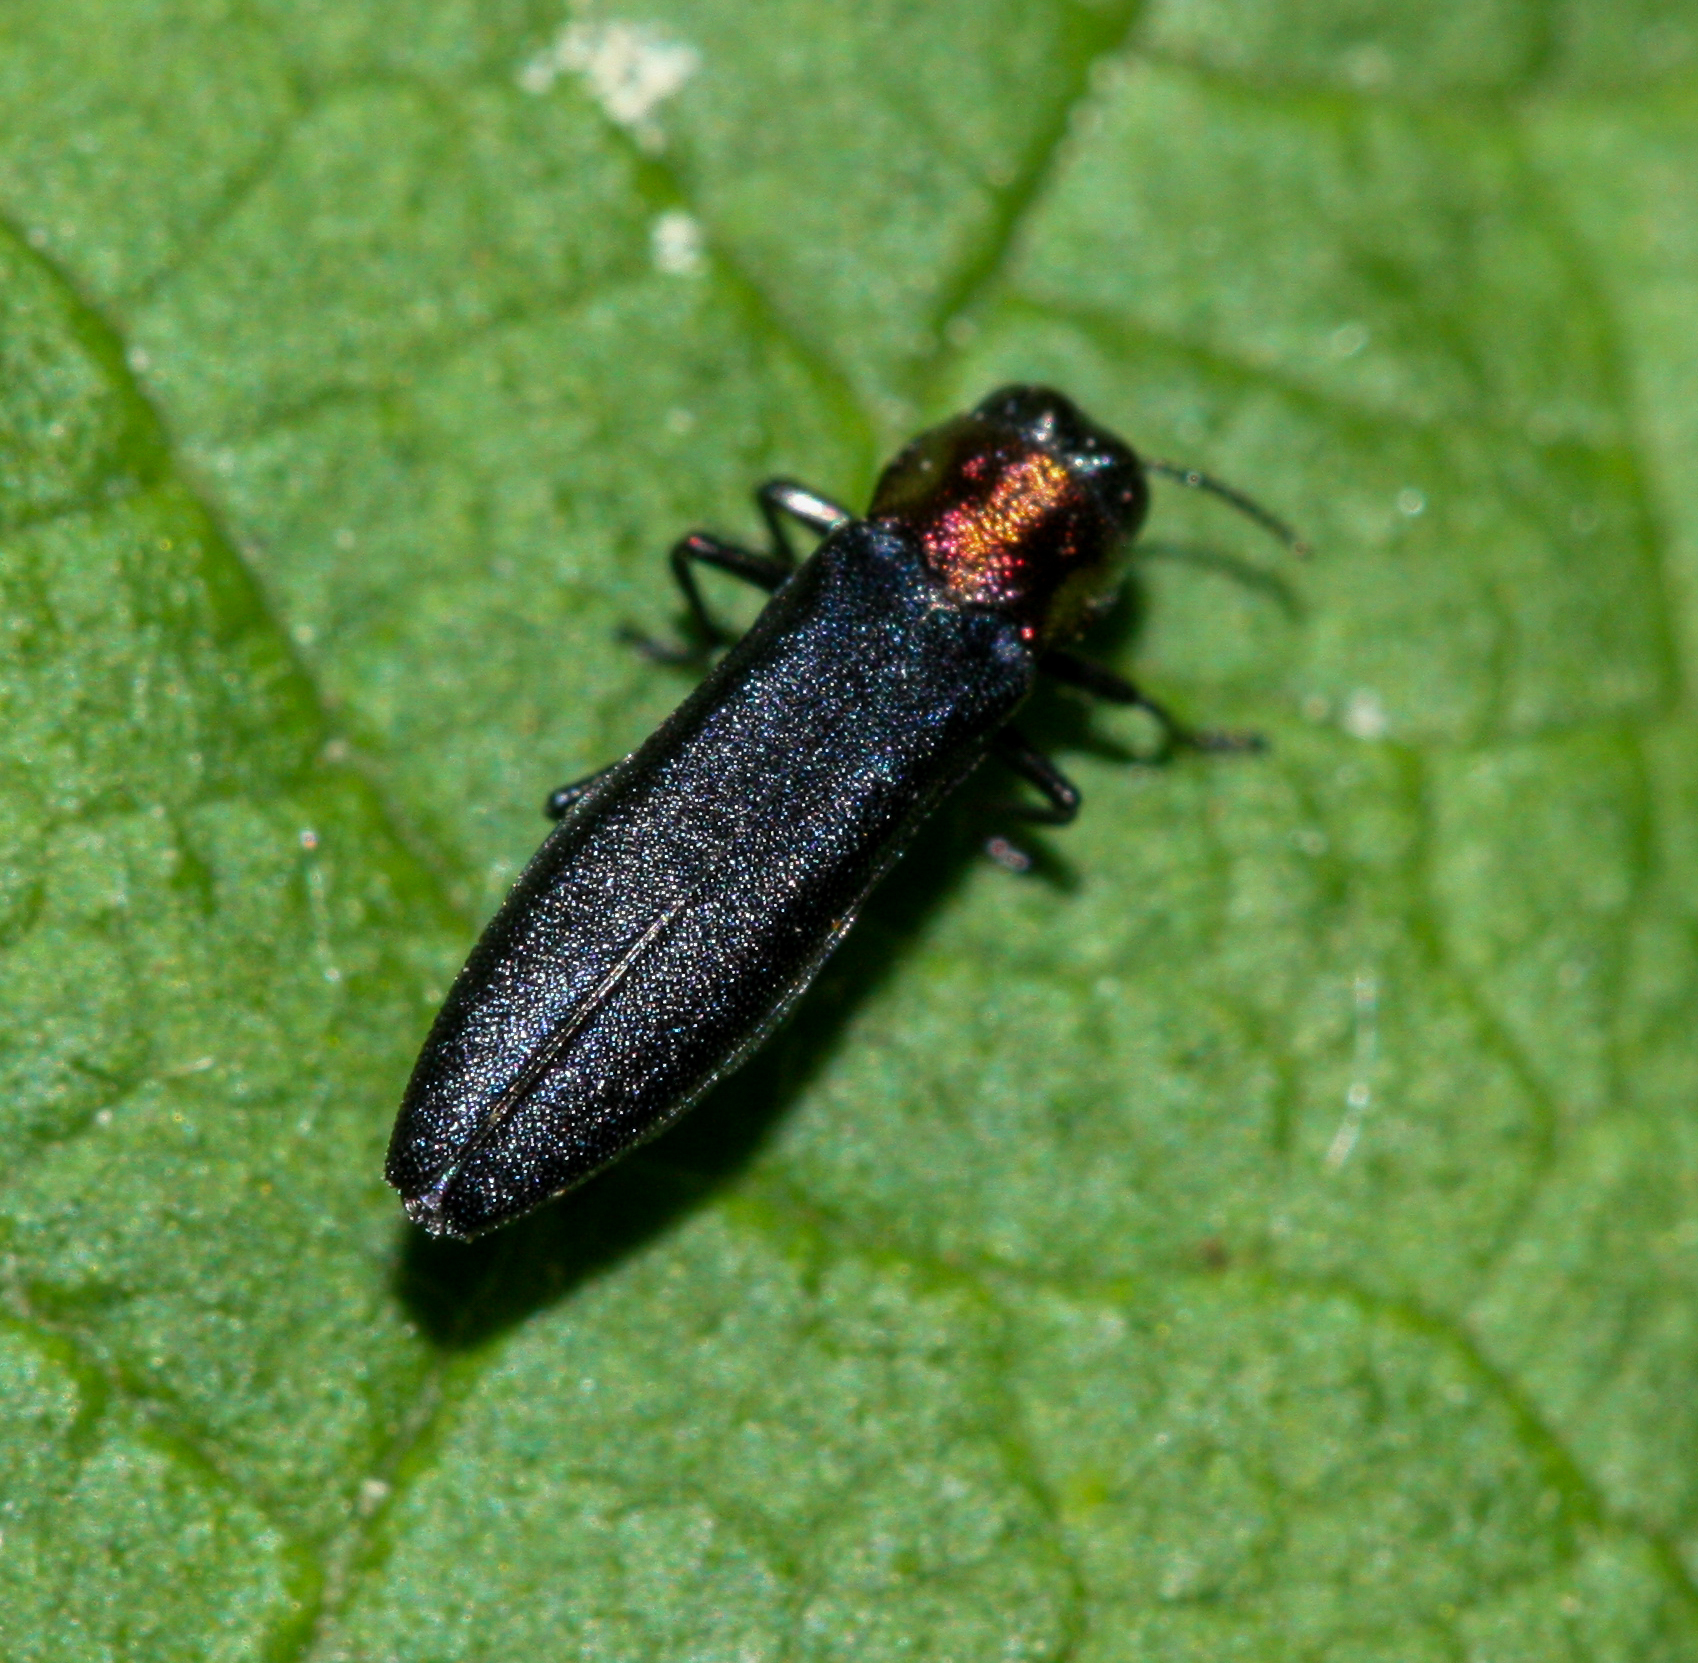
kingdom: Animalia
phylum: Arthropoda
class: Insecta
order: Coleoptera
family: Buprestidae
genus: Agrilus
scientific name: Agrilus ruficollis
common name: Red-necked cane borer beetle
